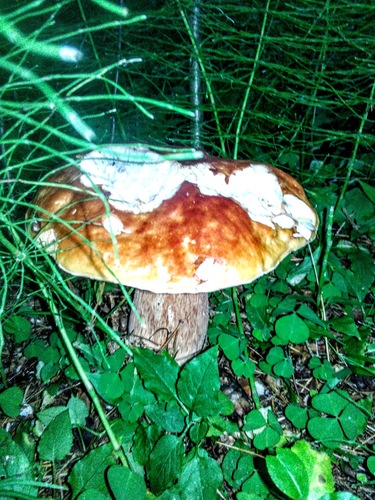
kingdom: Fungi
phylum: Basidiomycota
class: Agaricomycetes
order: Boletales
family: Boletaceae
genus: Boletus
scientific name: Boletus edulis
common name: Cep
